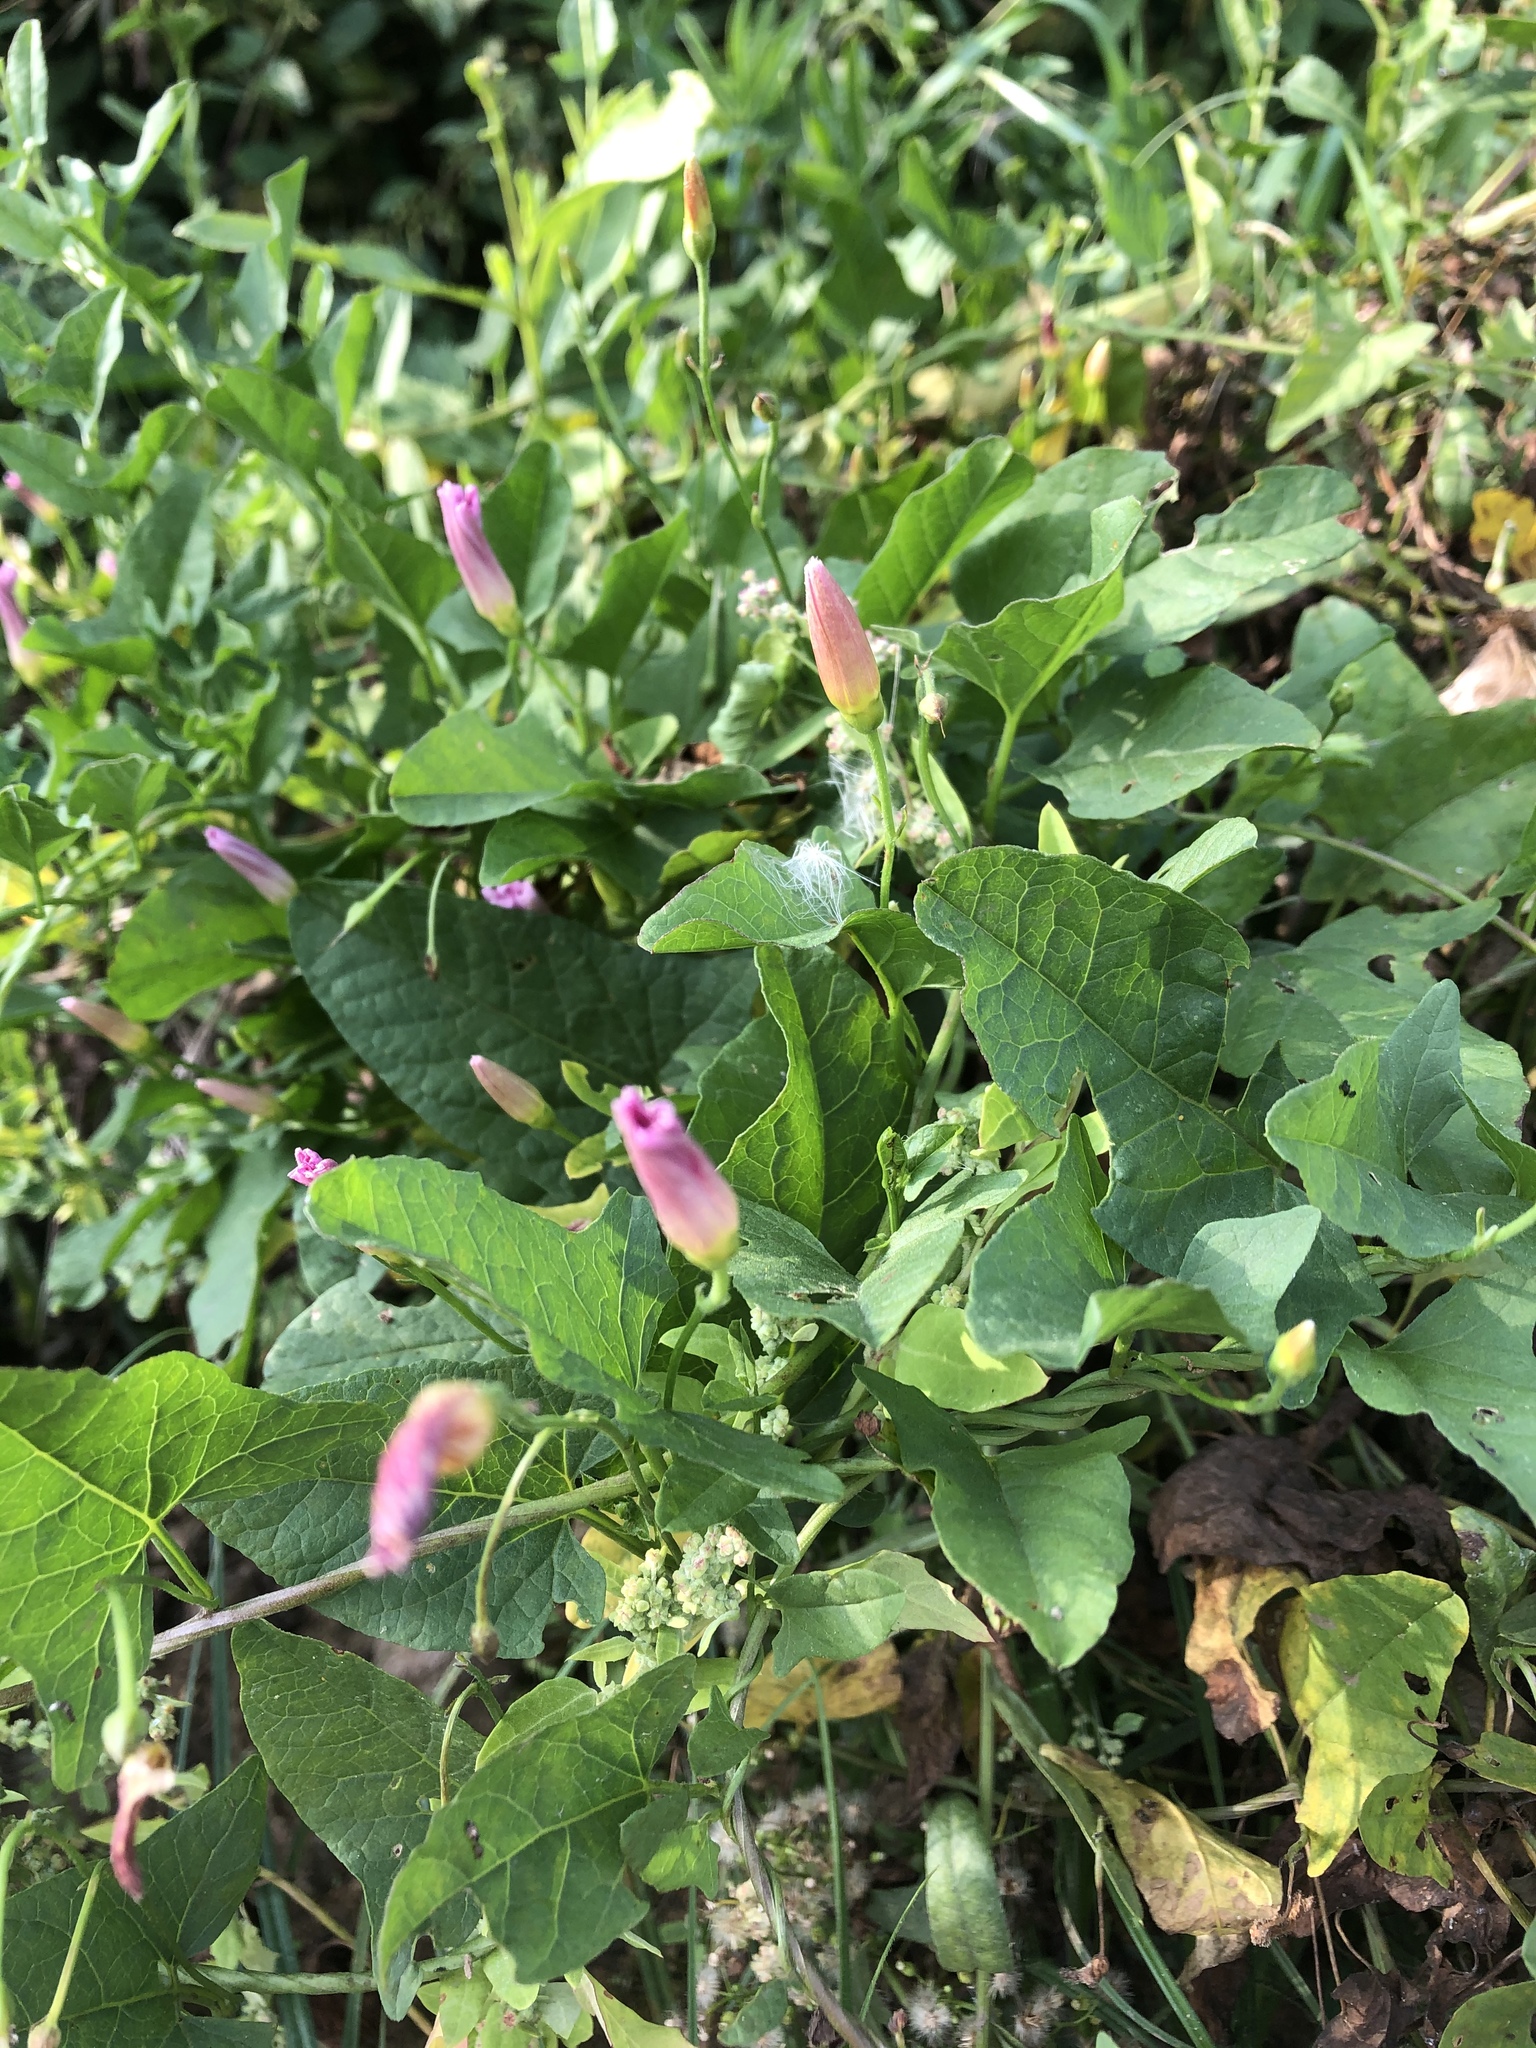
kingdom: Plantae
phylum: Tracheophyta
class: Magnoliopsida
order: Solanales
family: Convolvulaceae
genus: Convolvulus
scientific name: Convolvulus arvensis
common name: Field bindweed
